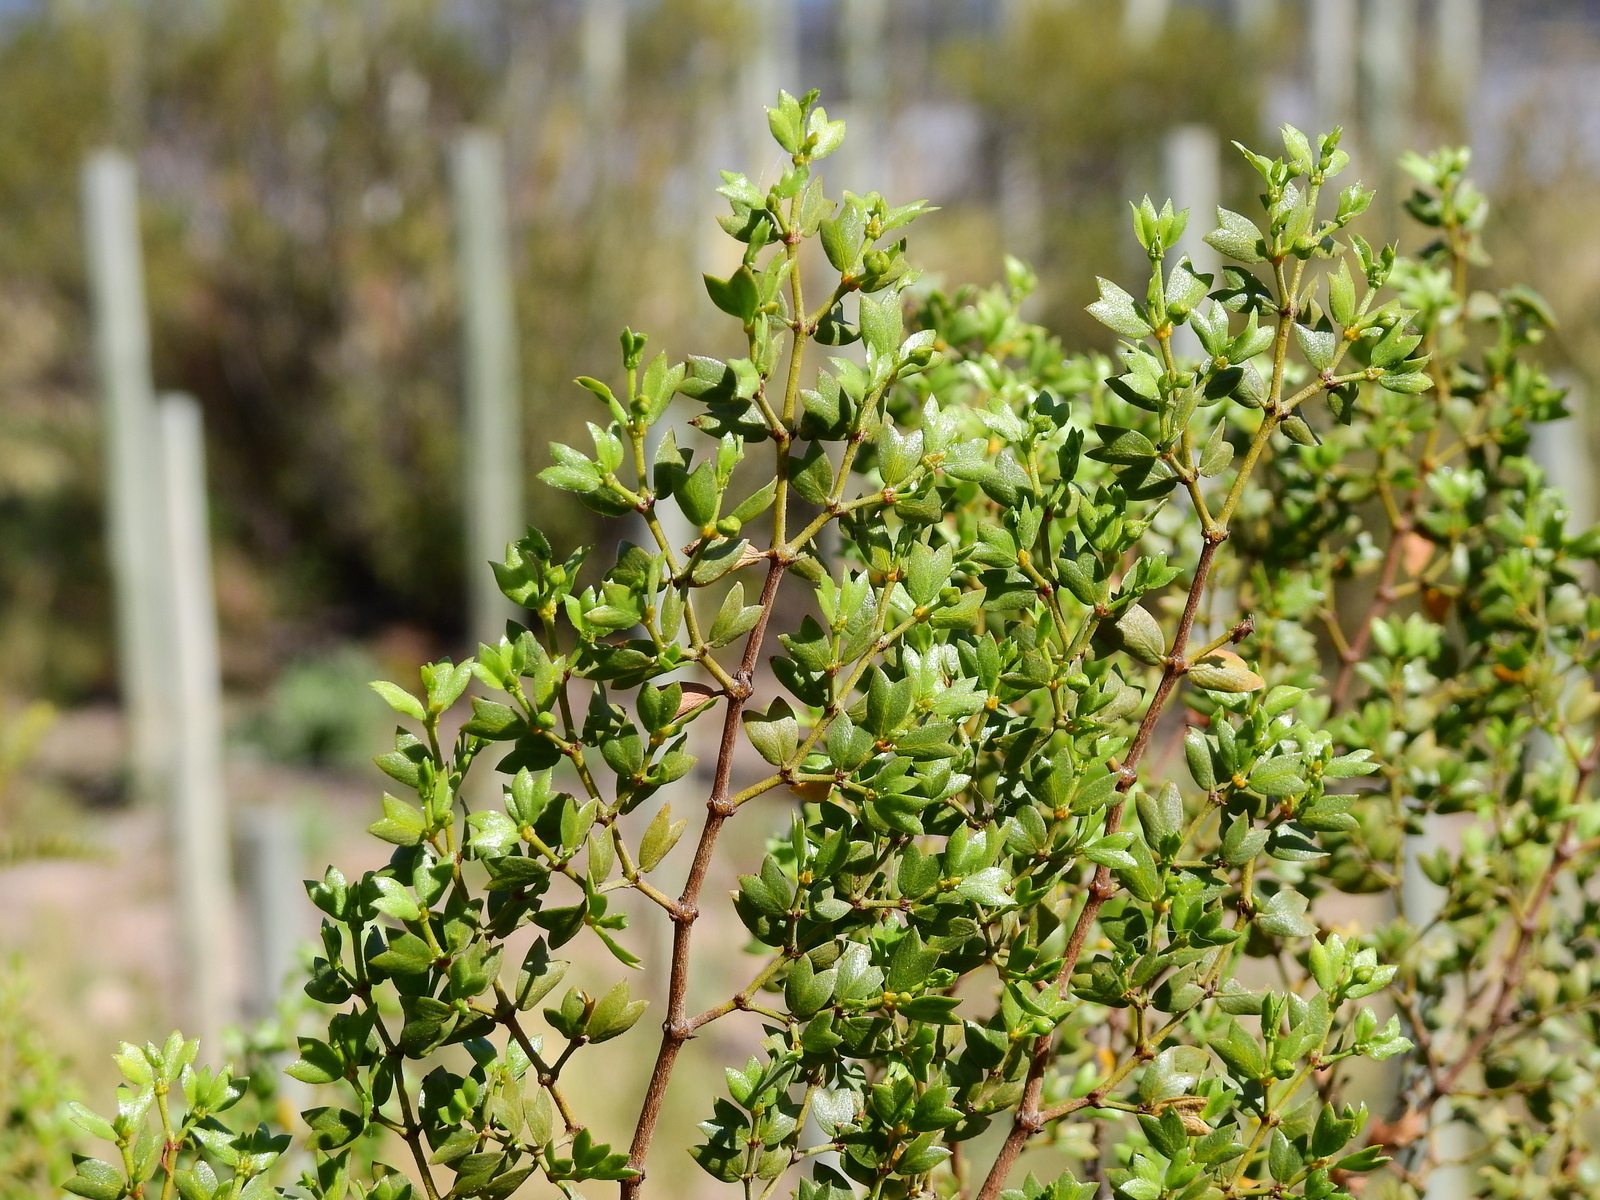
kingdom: Plantae
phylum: Tracheophyta
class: Magnoliopsida
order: Zygophyllales
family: Zygophyllaceae
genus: Larrea
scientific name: Larrea cuneifolia
